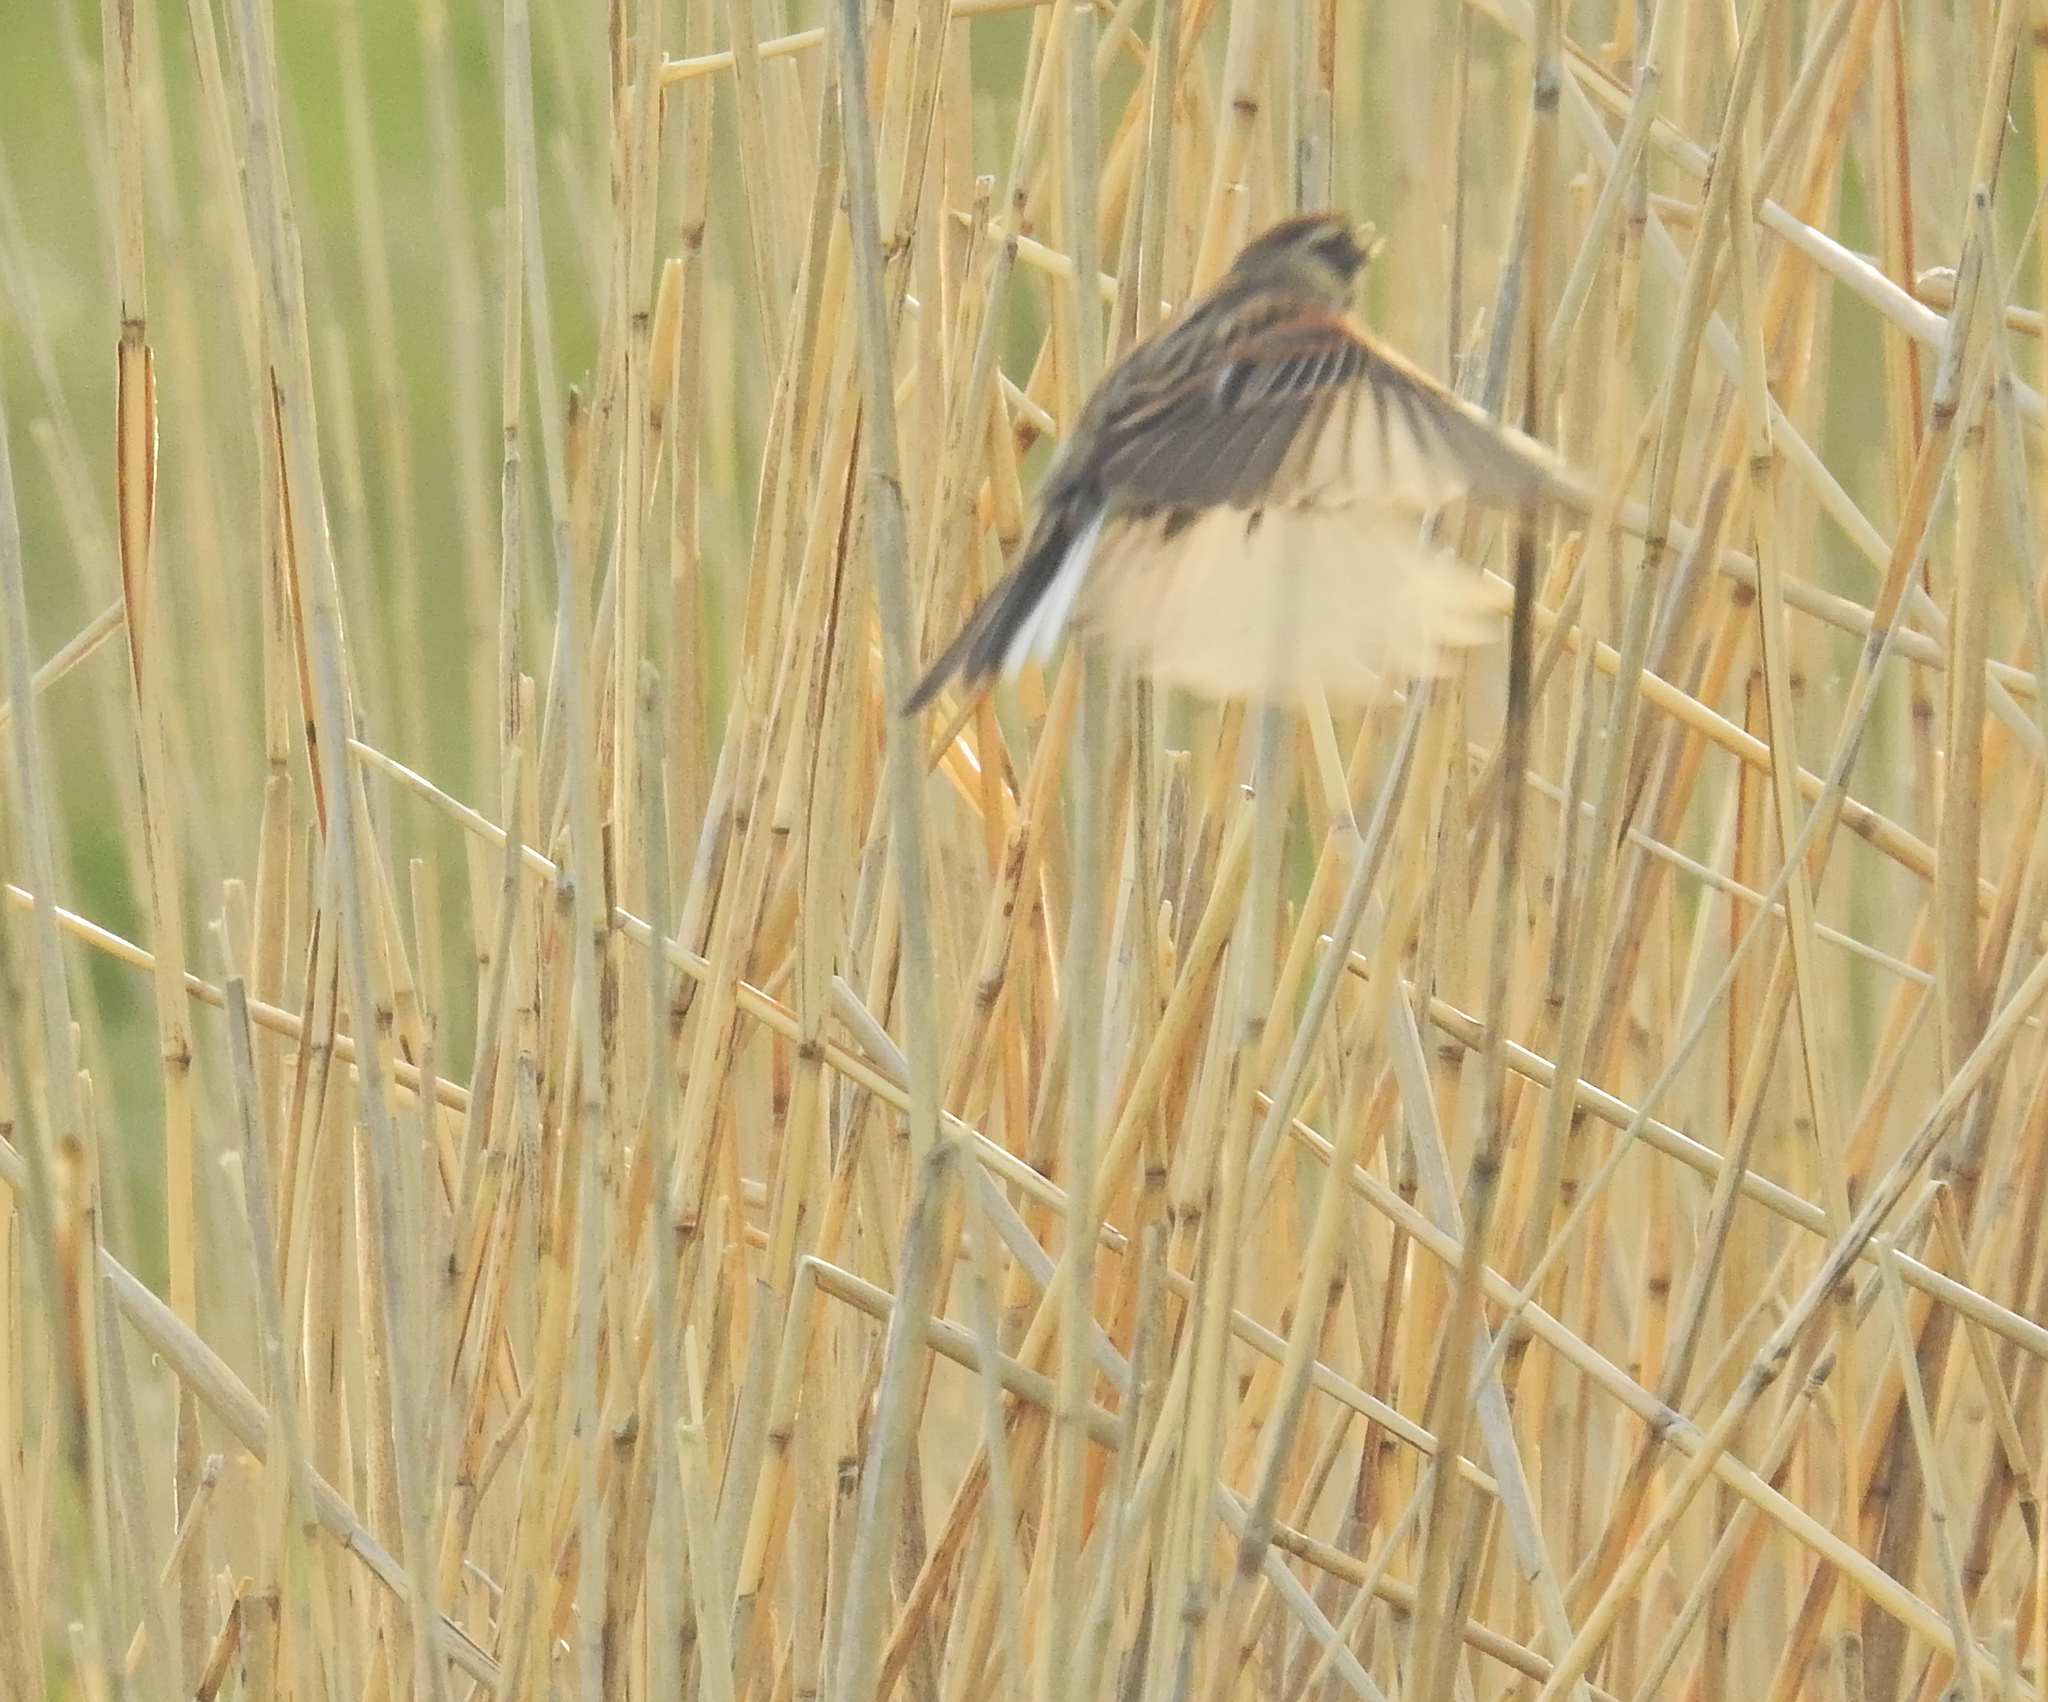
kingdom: Animalia
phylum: Chordata
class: Aves
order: Passeriformes
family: Emberizidae
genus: Emberiza
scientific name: Emberiza schoeniclus
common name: Reed bunting
